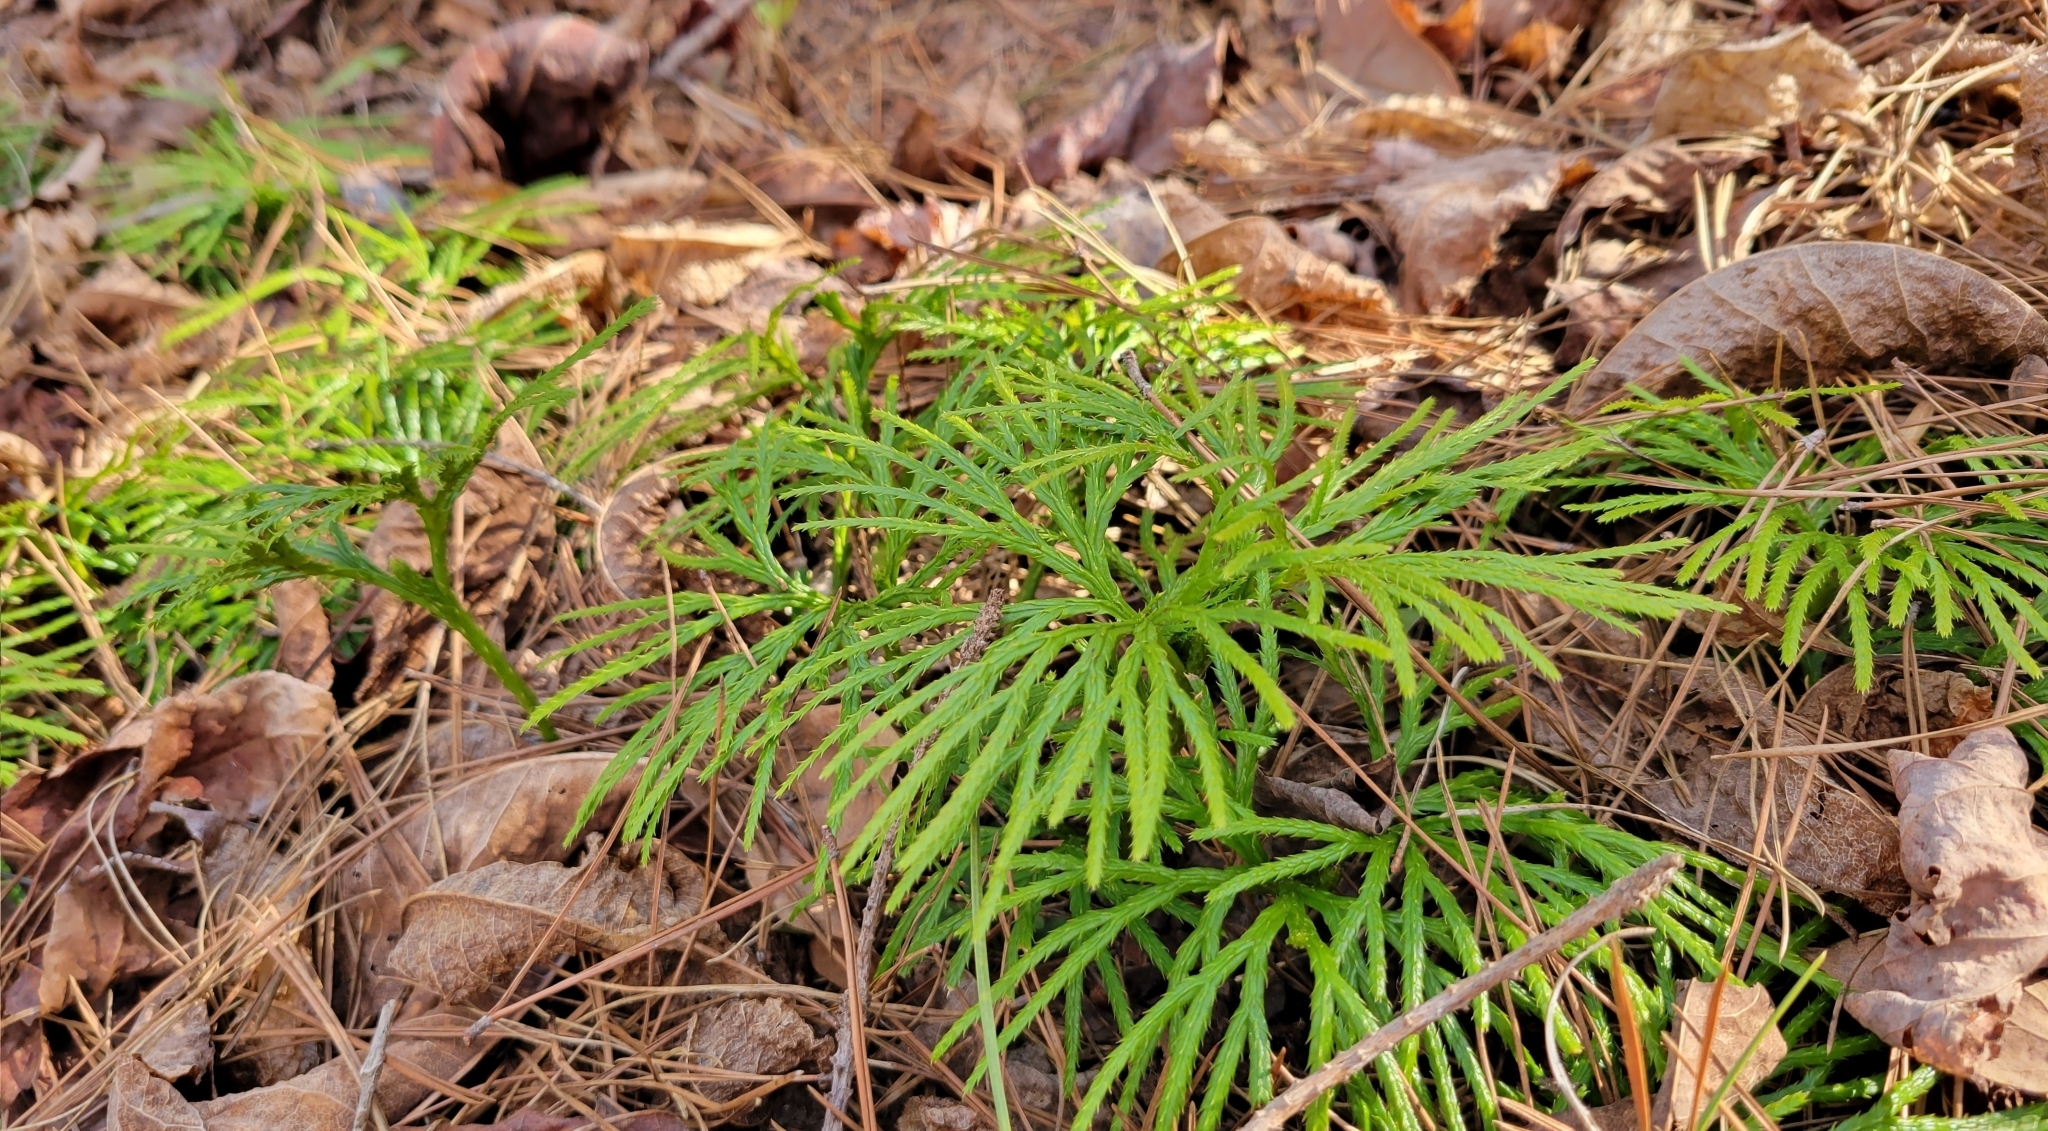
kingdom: Plantae
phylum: Tracheophyta
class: Lycopodiopsida
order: Lycopodiales
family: Lycopodiaceae
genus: Diphasiastrum
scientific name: Diphasiastrum digitatum
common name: Southern running-pine
